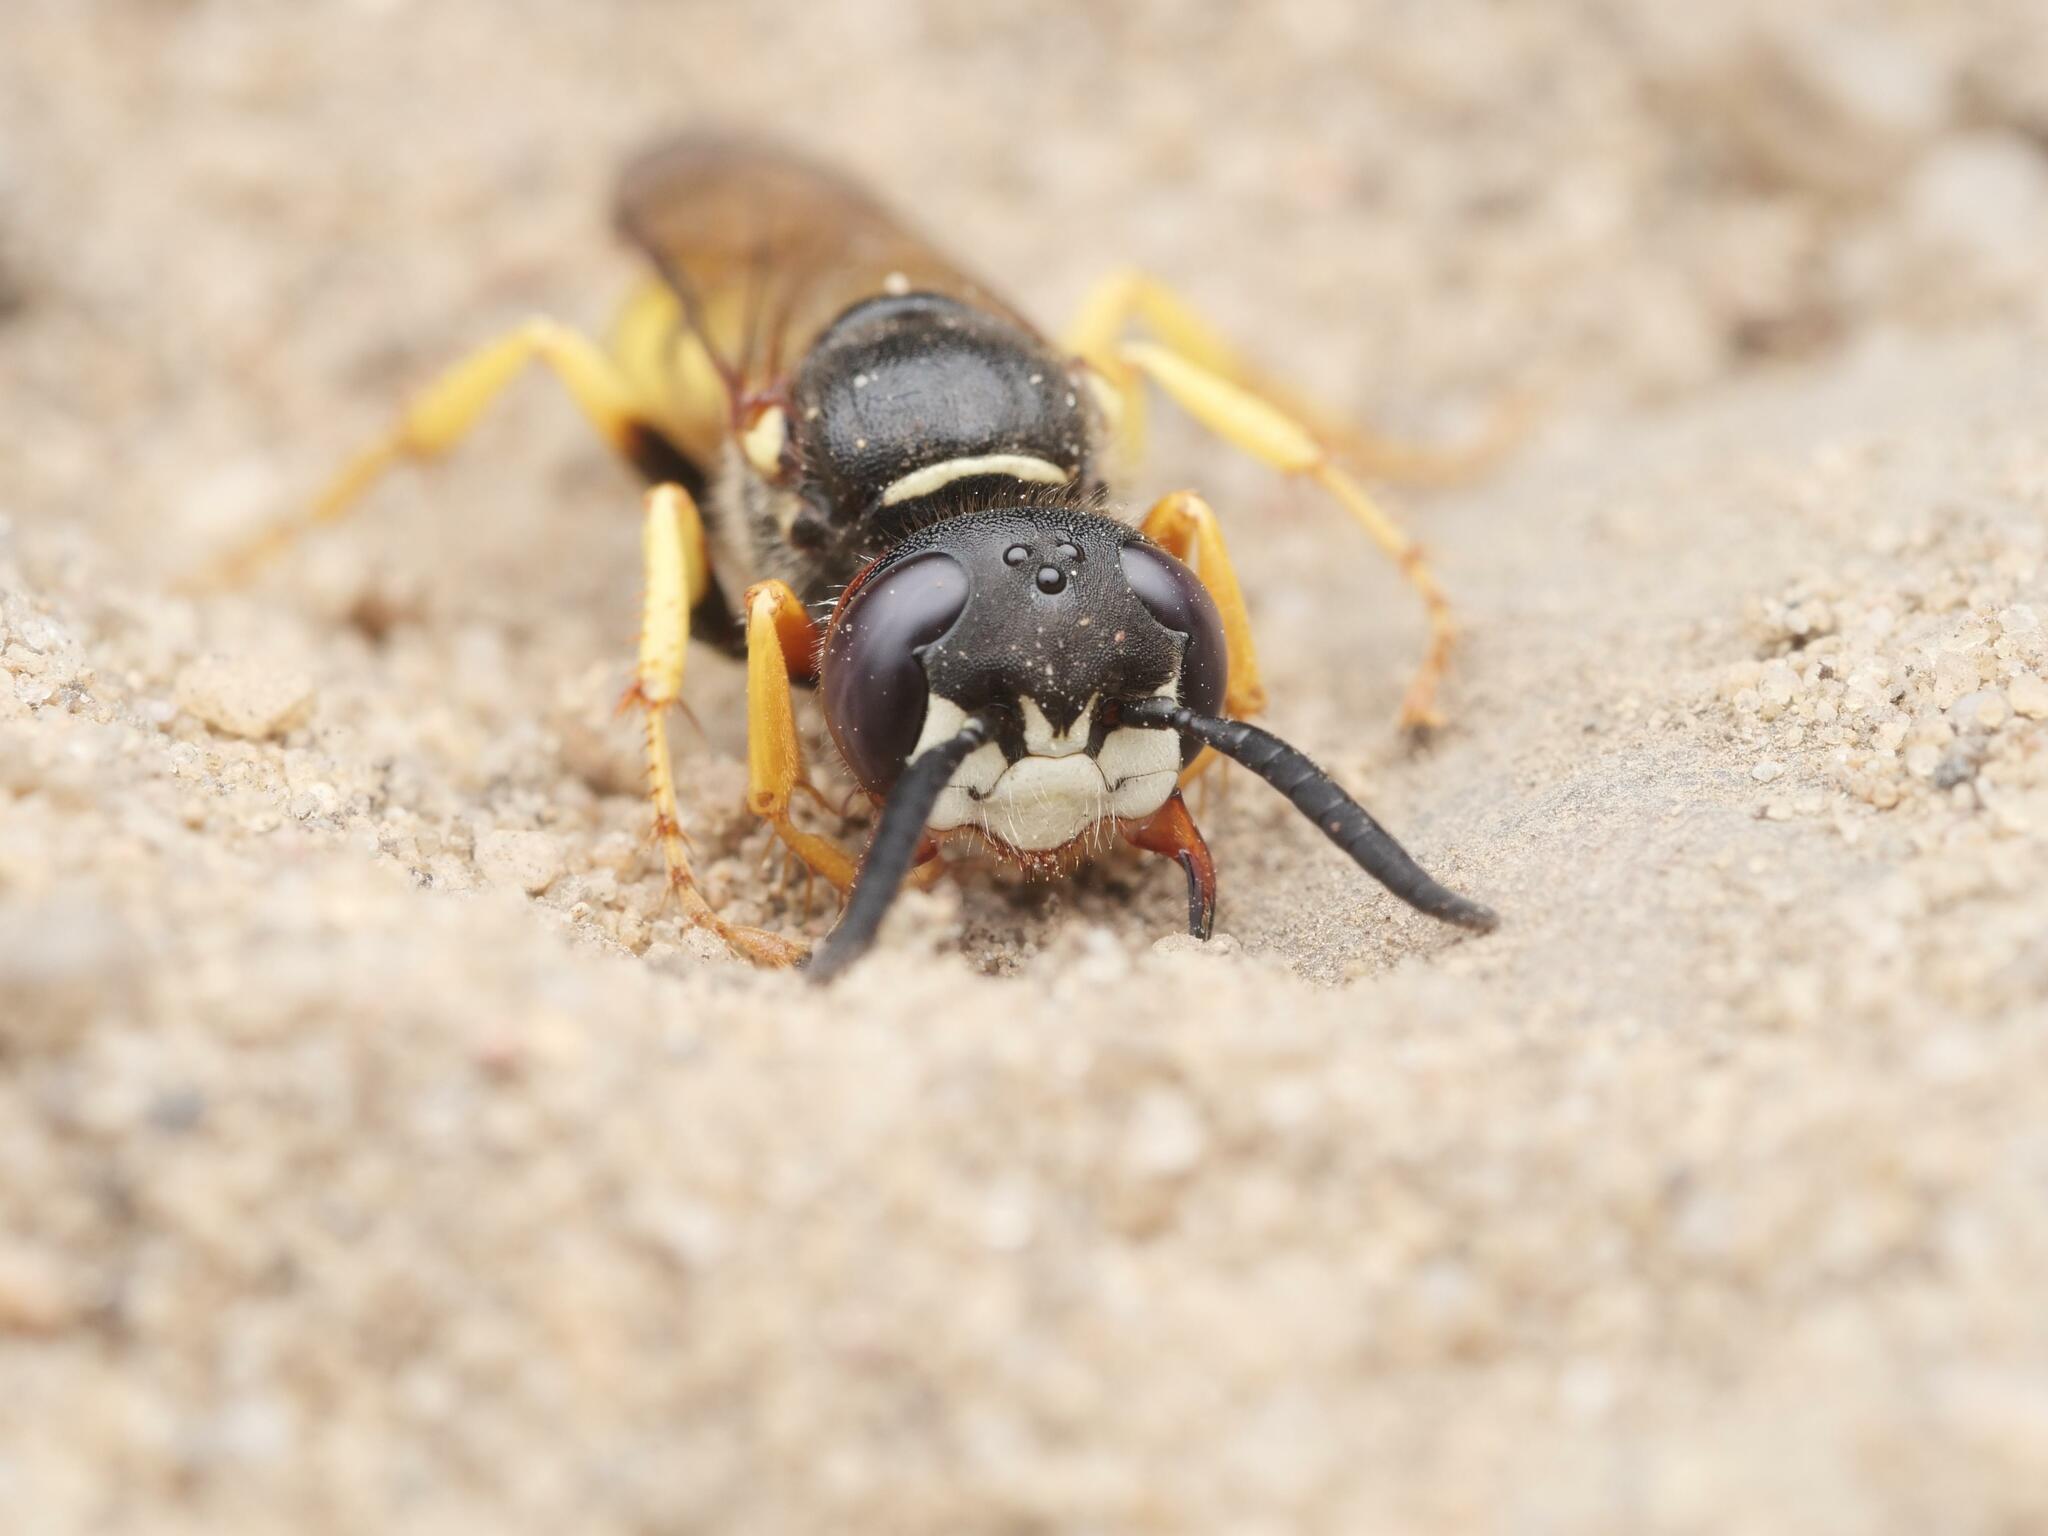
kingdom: Animalia
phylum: Arthropoda
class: Insecta
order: Hymenoptera
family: Crabronidae
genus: Philanthus
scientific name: Philanthus triangulum
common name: Bee wolf
